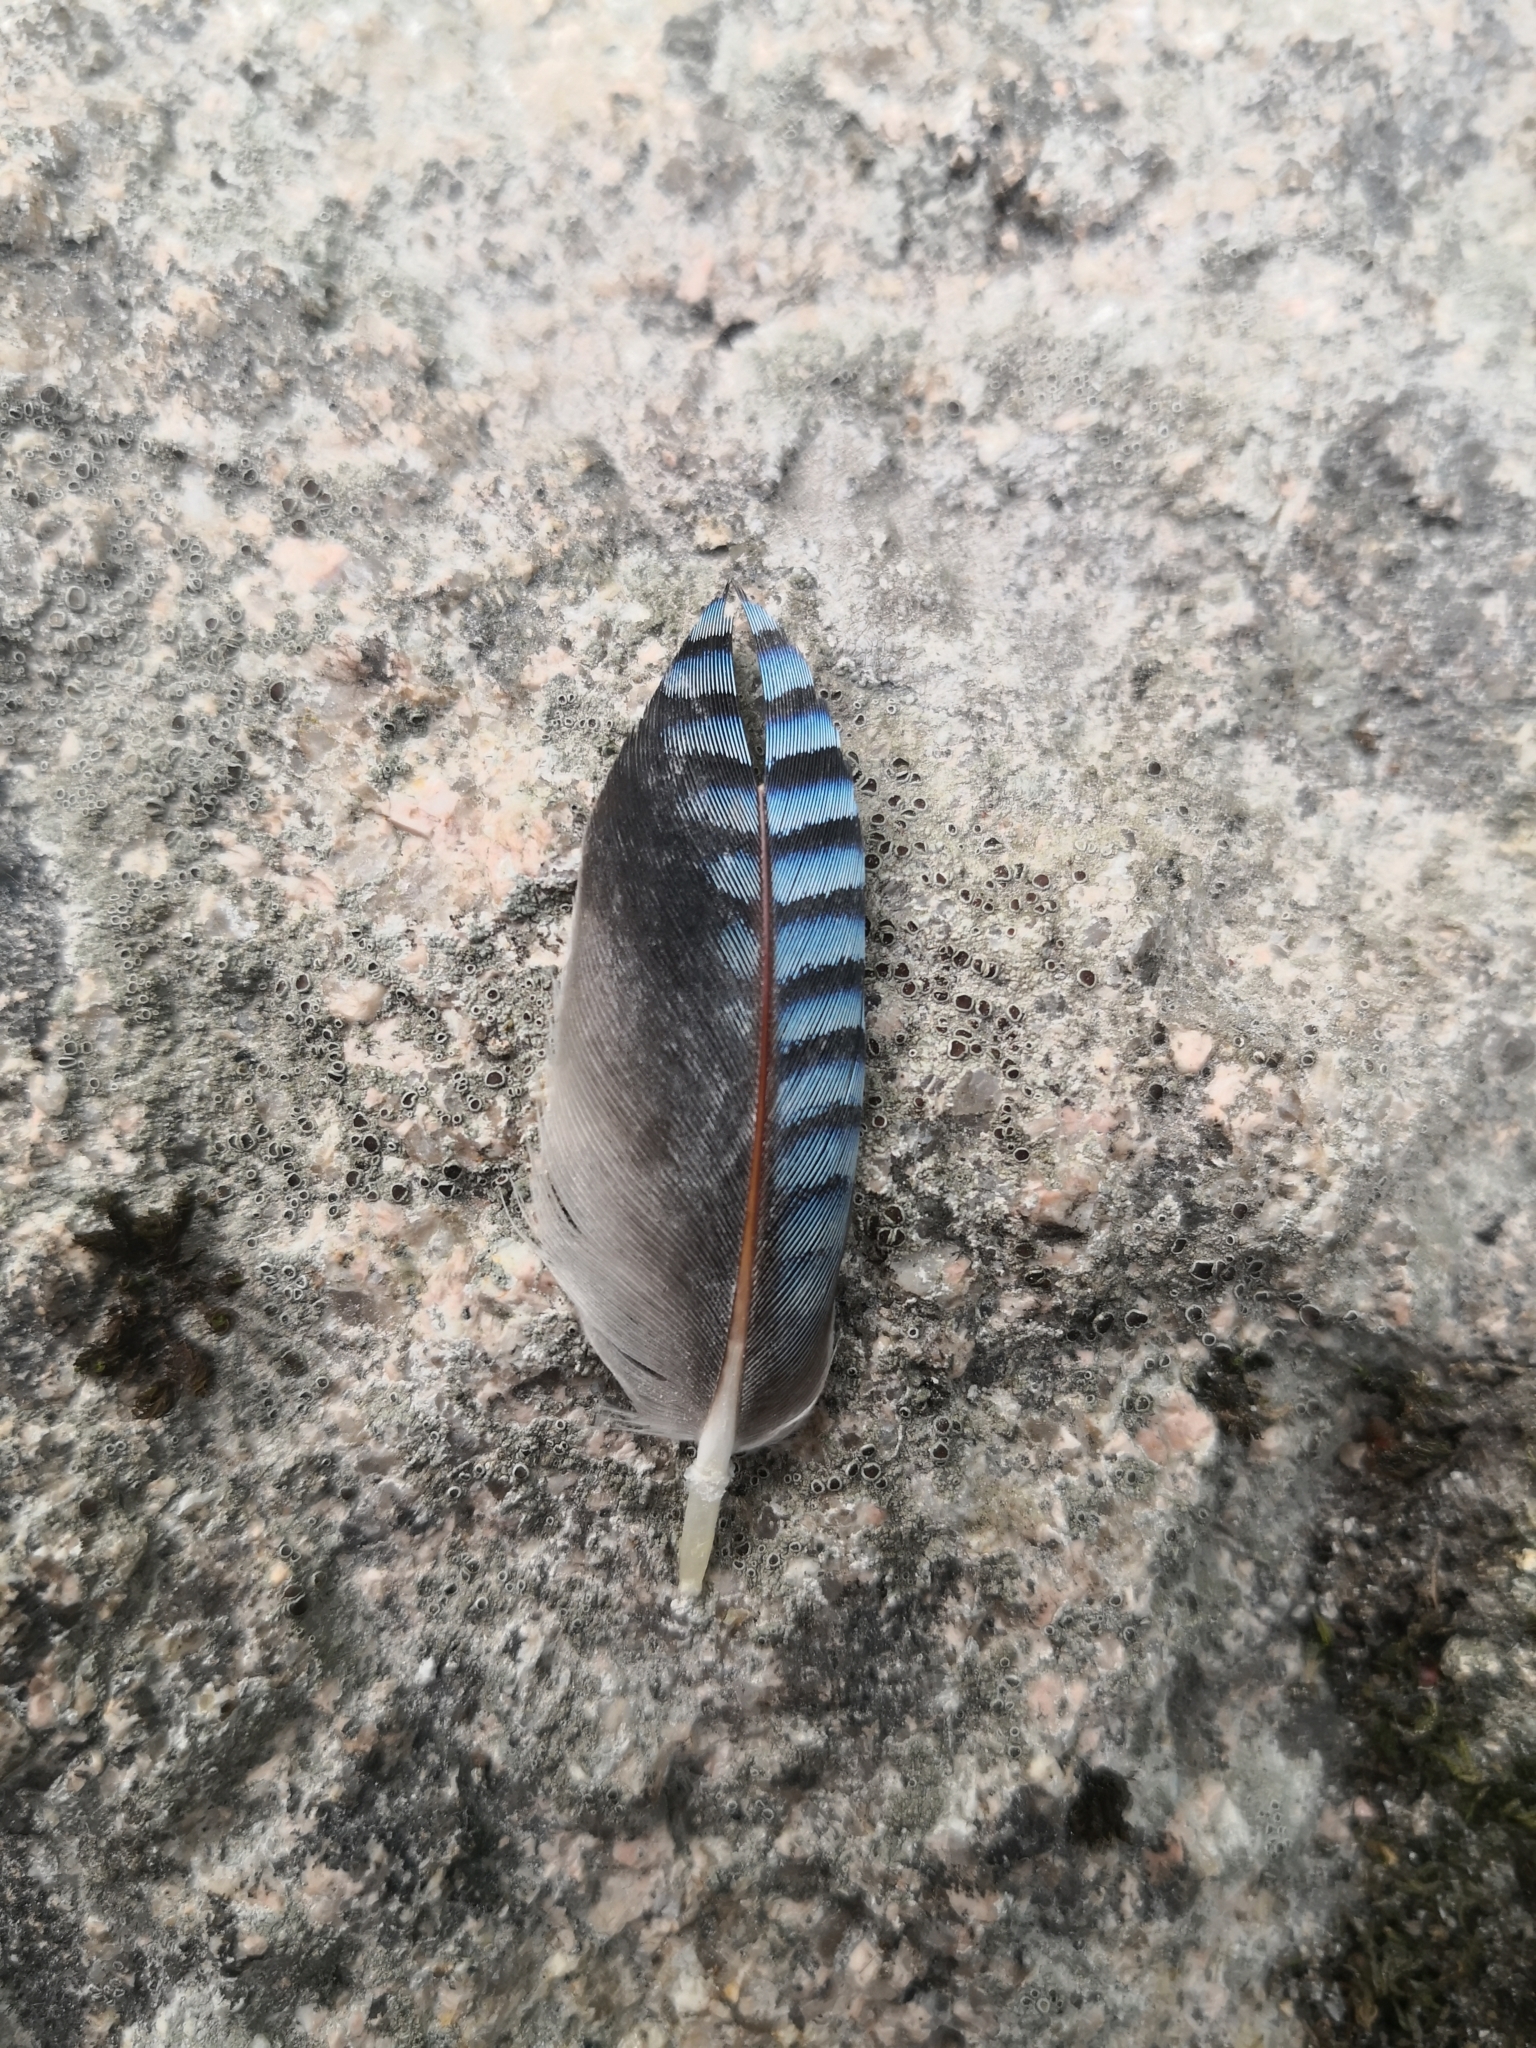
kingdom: Animalia
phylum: Chordata
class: Aves
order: Passeriformes
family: Corvidae
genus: Garrulus
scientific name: Garrulus glandarius
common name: Eurasian jay
